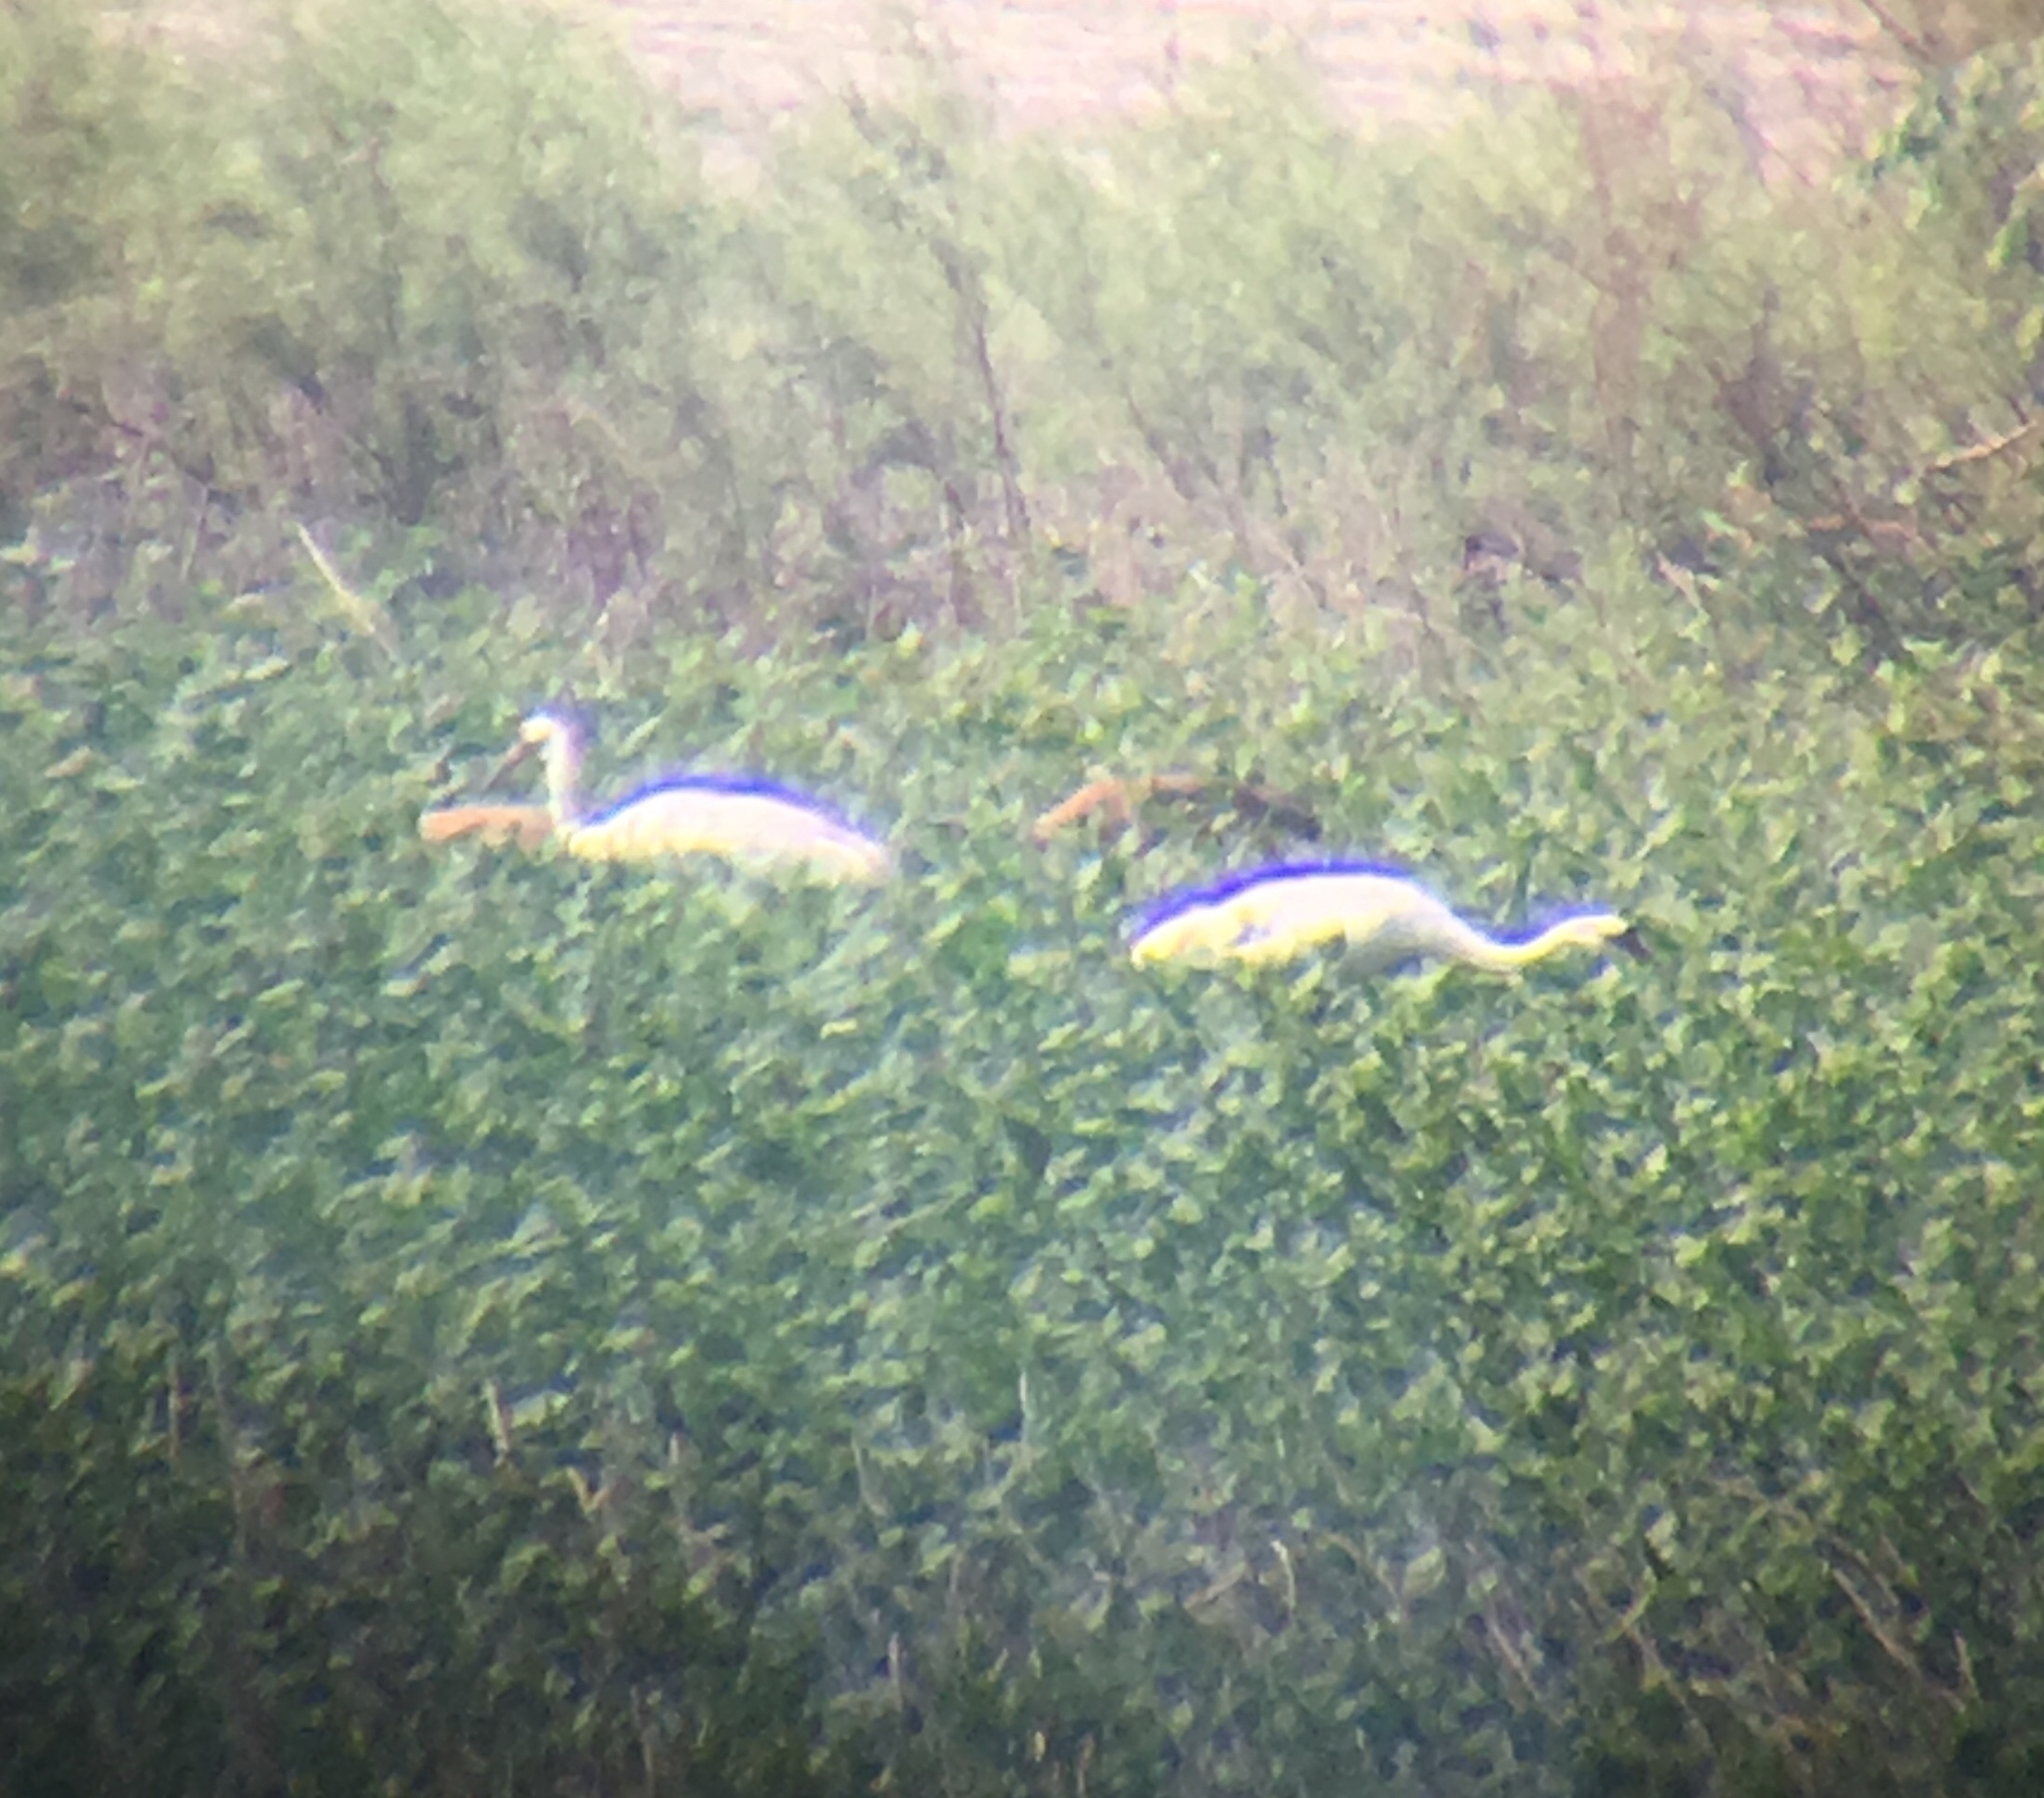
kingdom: Animalia
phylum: Chordata
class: Aves
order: Gruiformes
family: Gruidae
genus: Grus
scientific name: Grus americana
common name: Whooping crane
